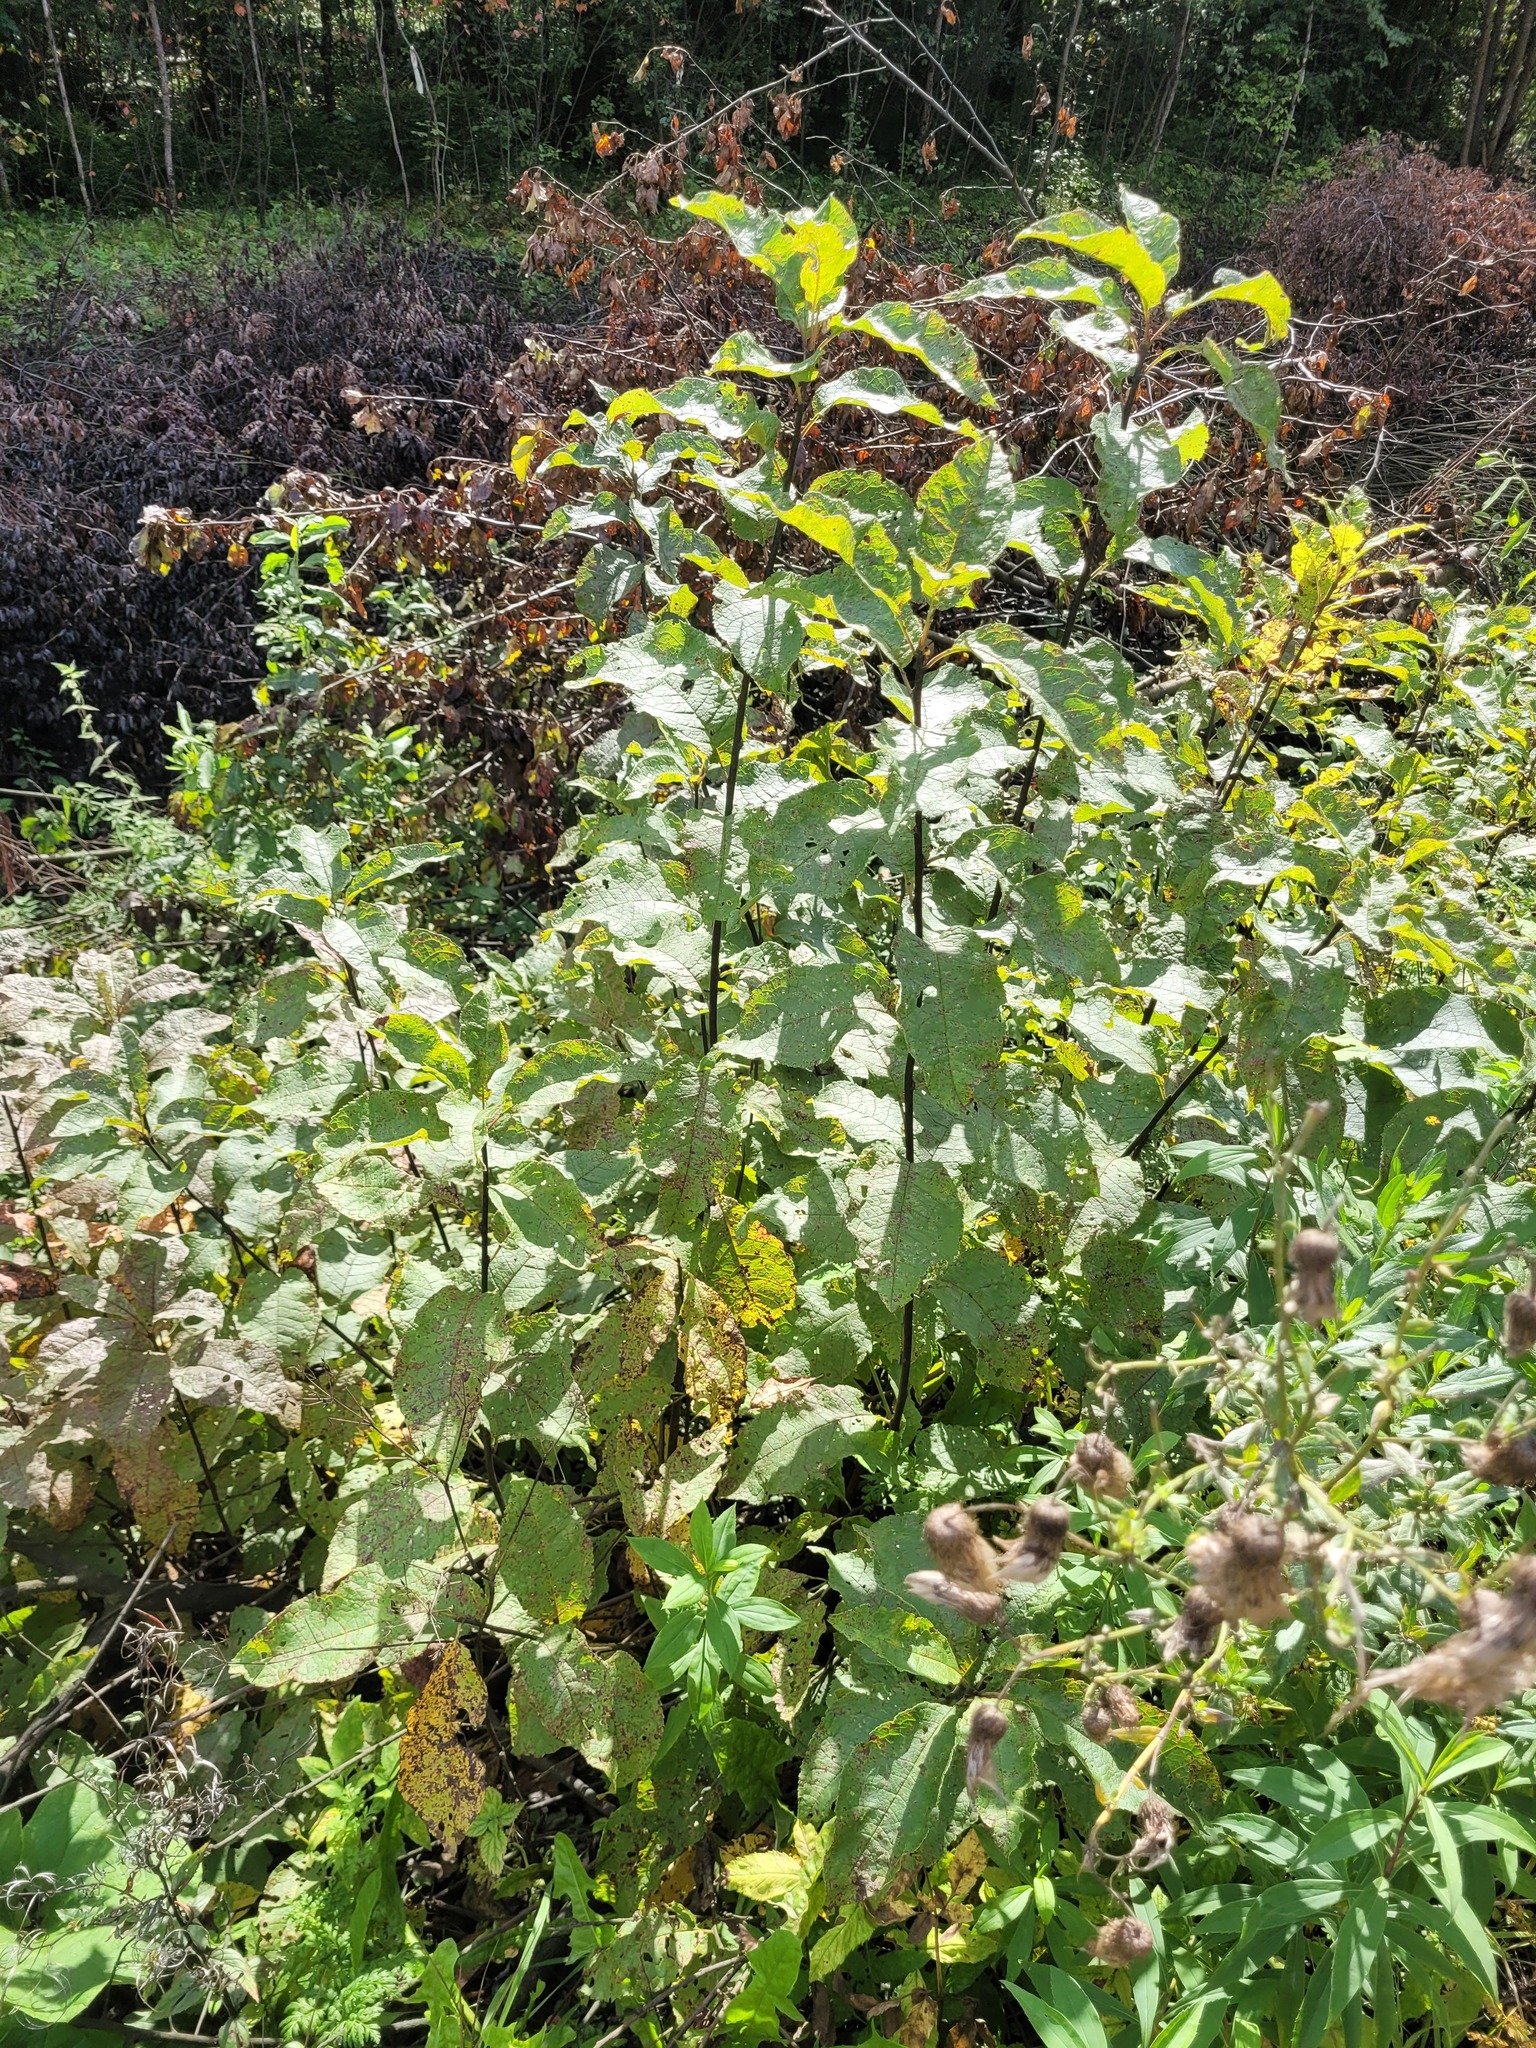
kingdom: Plantae
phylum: Tracheophyta
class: Magnoliopsida
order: Rosales
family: Rosaceae
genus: Prunus
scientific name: Prunus padus
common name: Bird cherry
